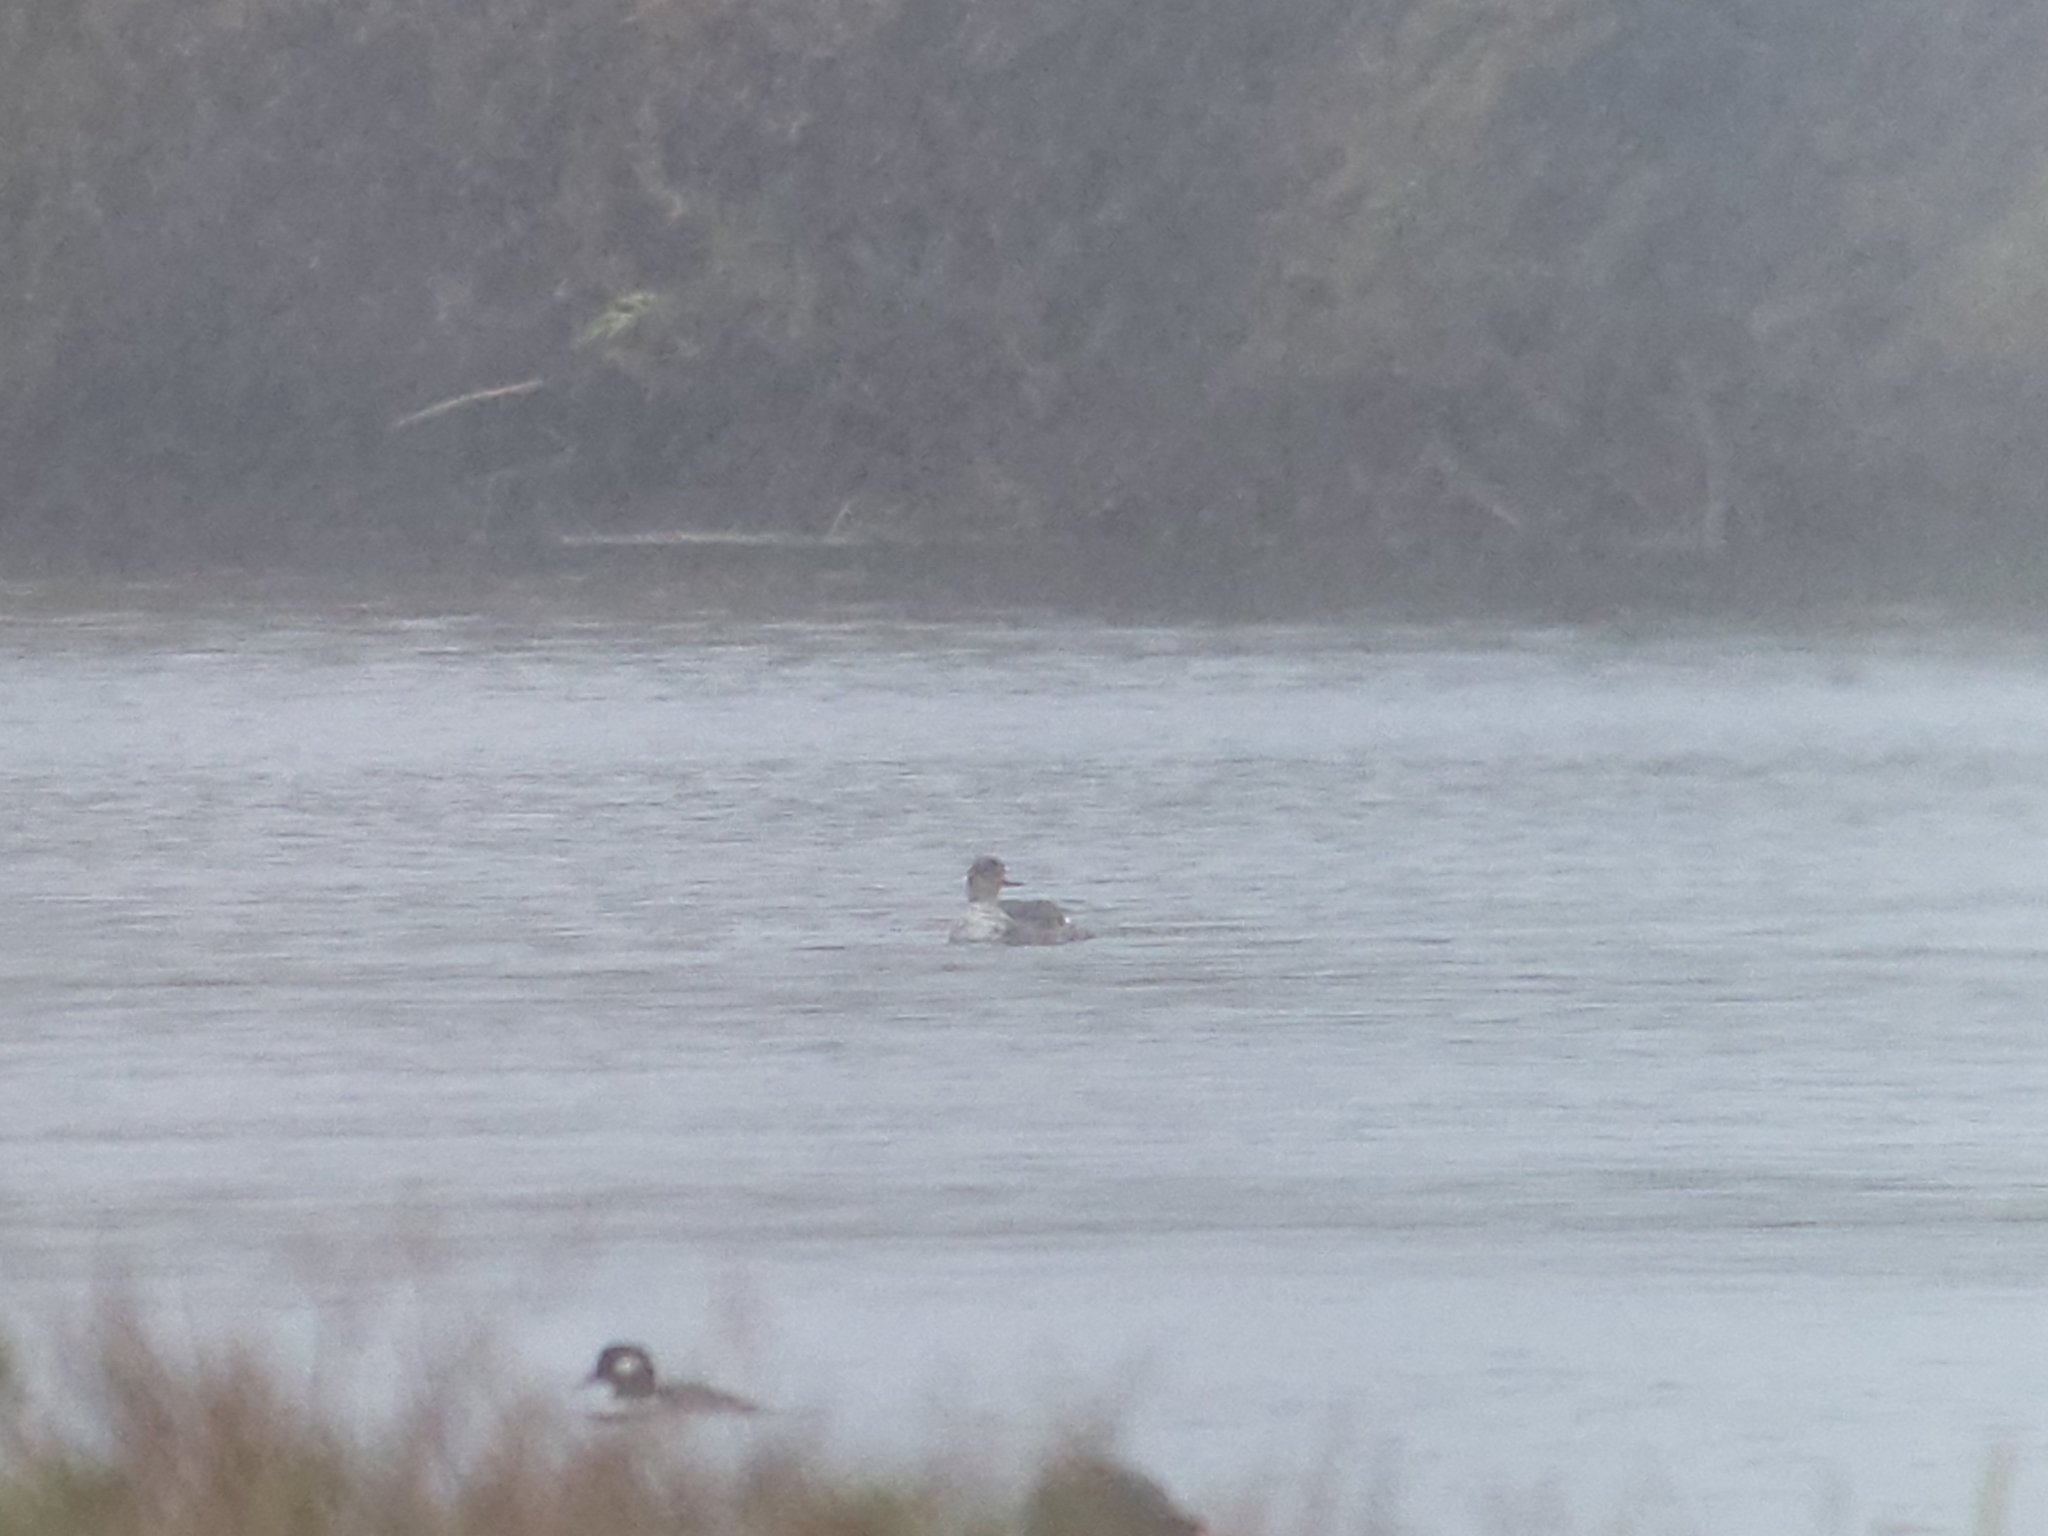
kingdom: Animalia
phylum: Chordata
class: Aves
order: Anseriformes
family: Anatidae
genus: Mergus
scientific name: Mergus serrator
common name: Red-breasted merganser
